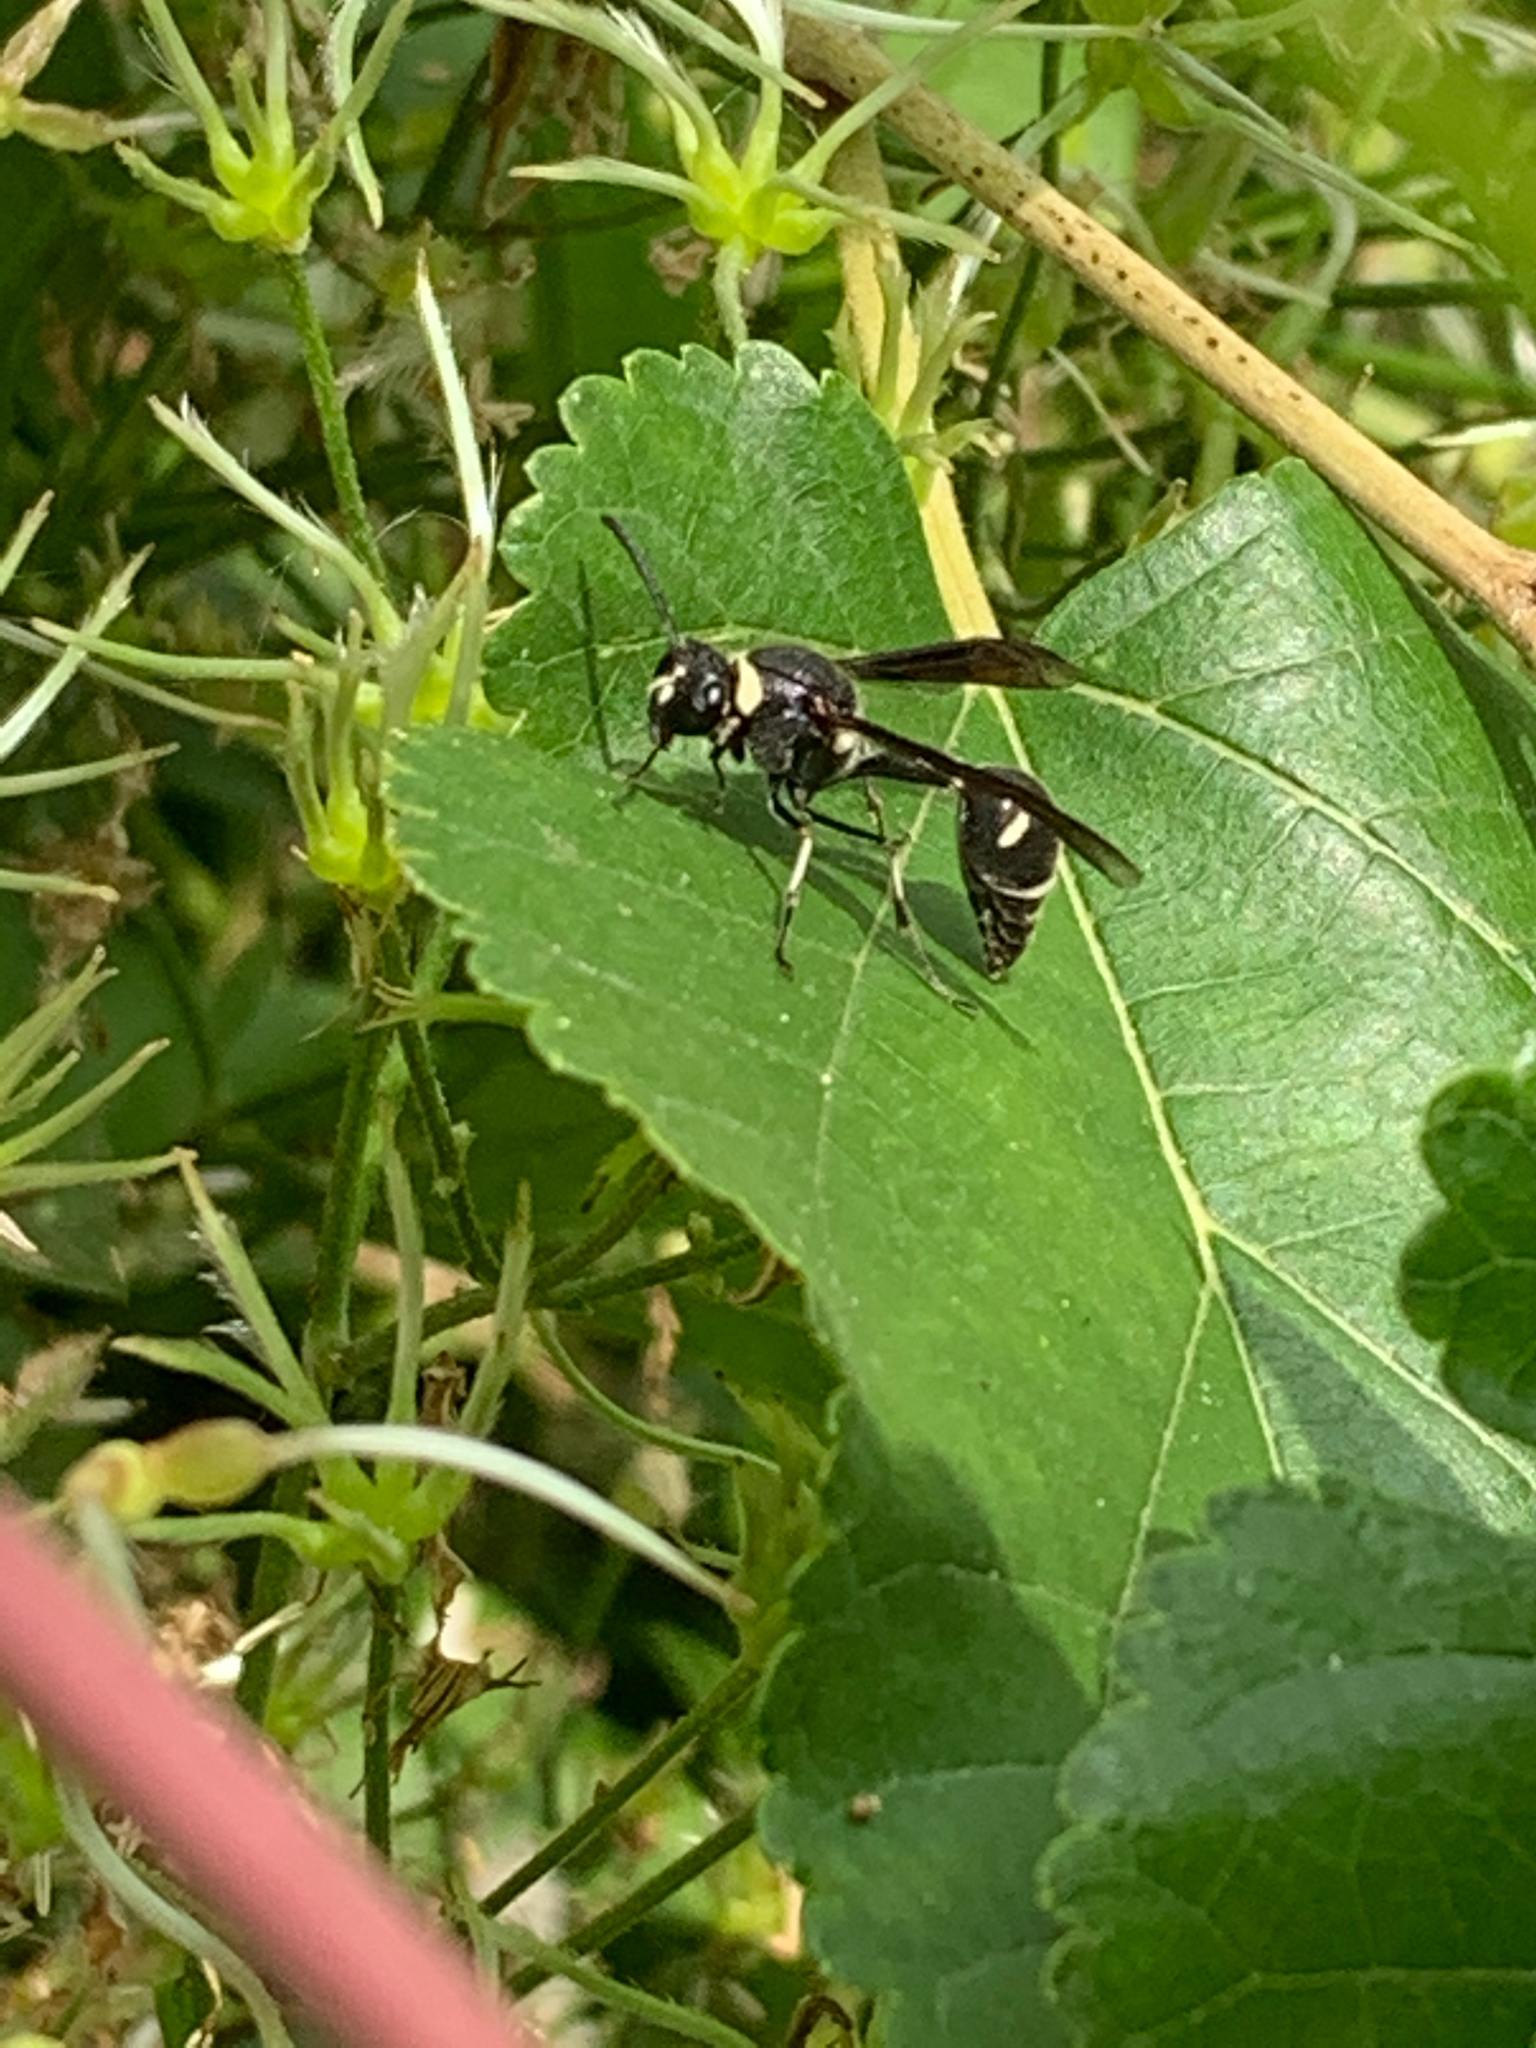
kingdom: Animalia
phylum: Arthropoda
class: Insecta
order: Hymenoptera
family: Vespidae
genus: Eumenes
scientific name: Eumenes fraternus
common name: Fraternal potter wasp
